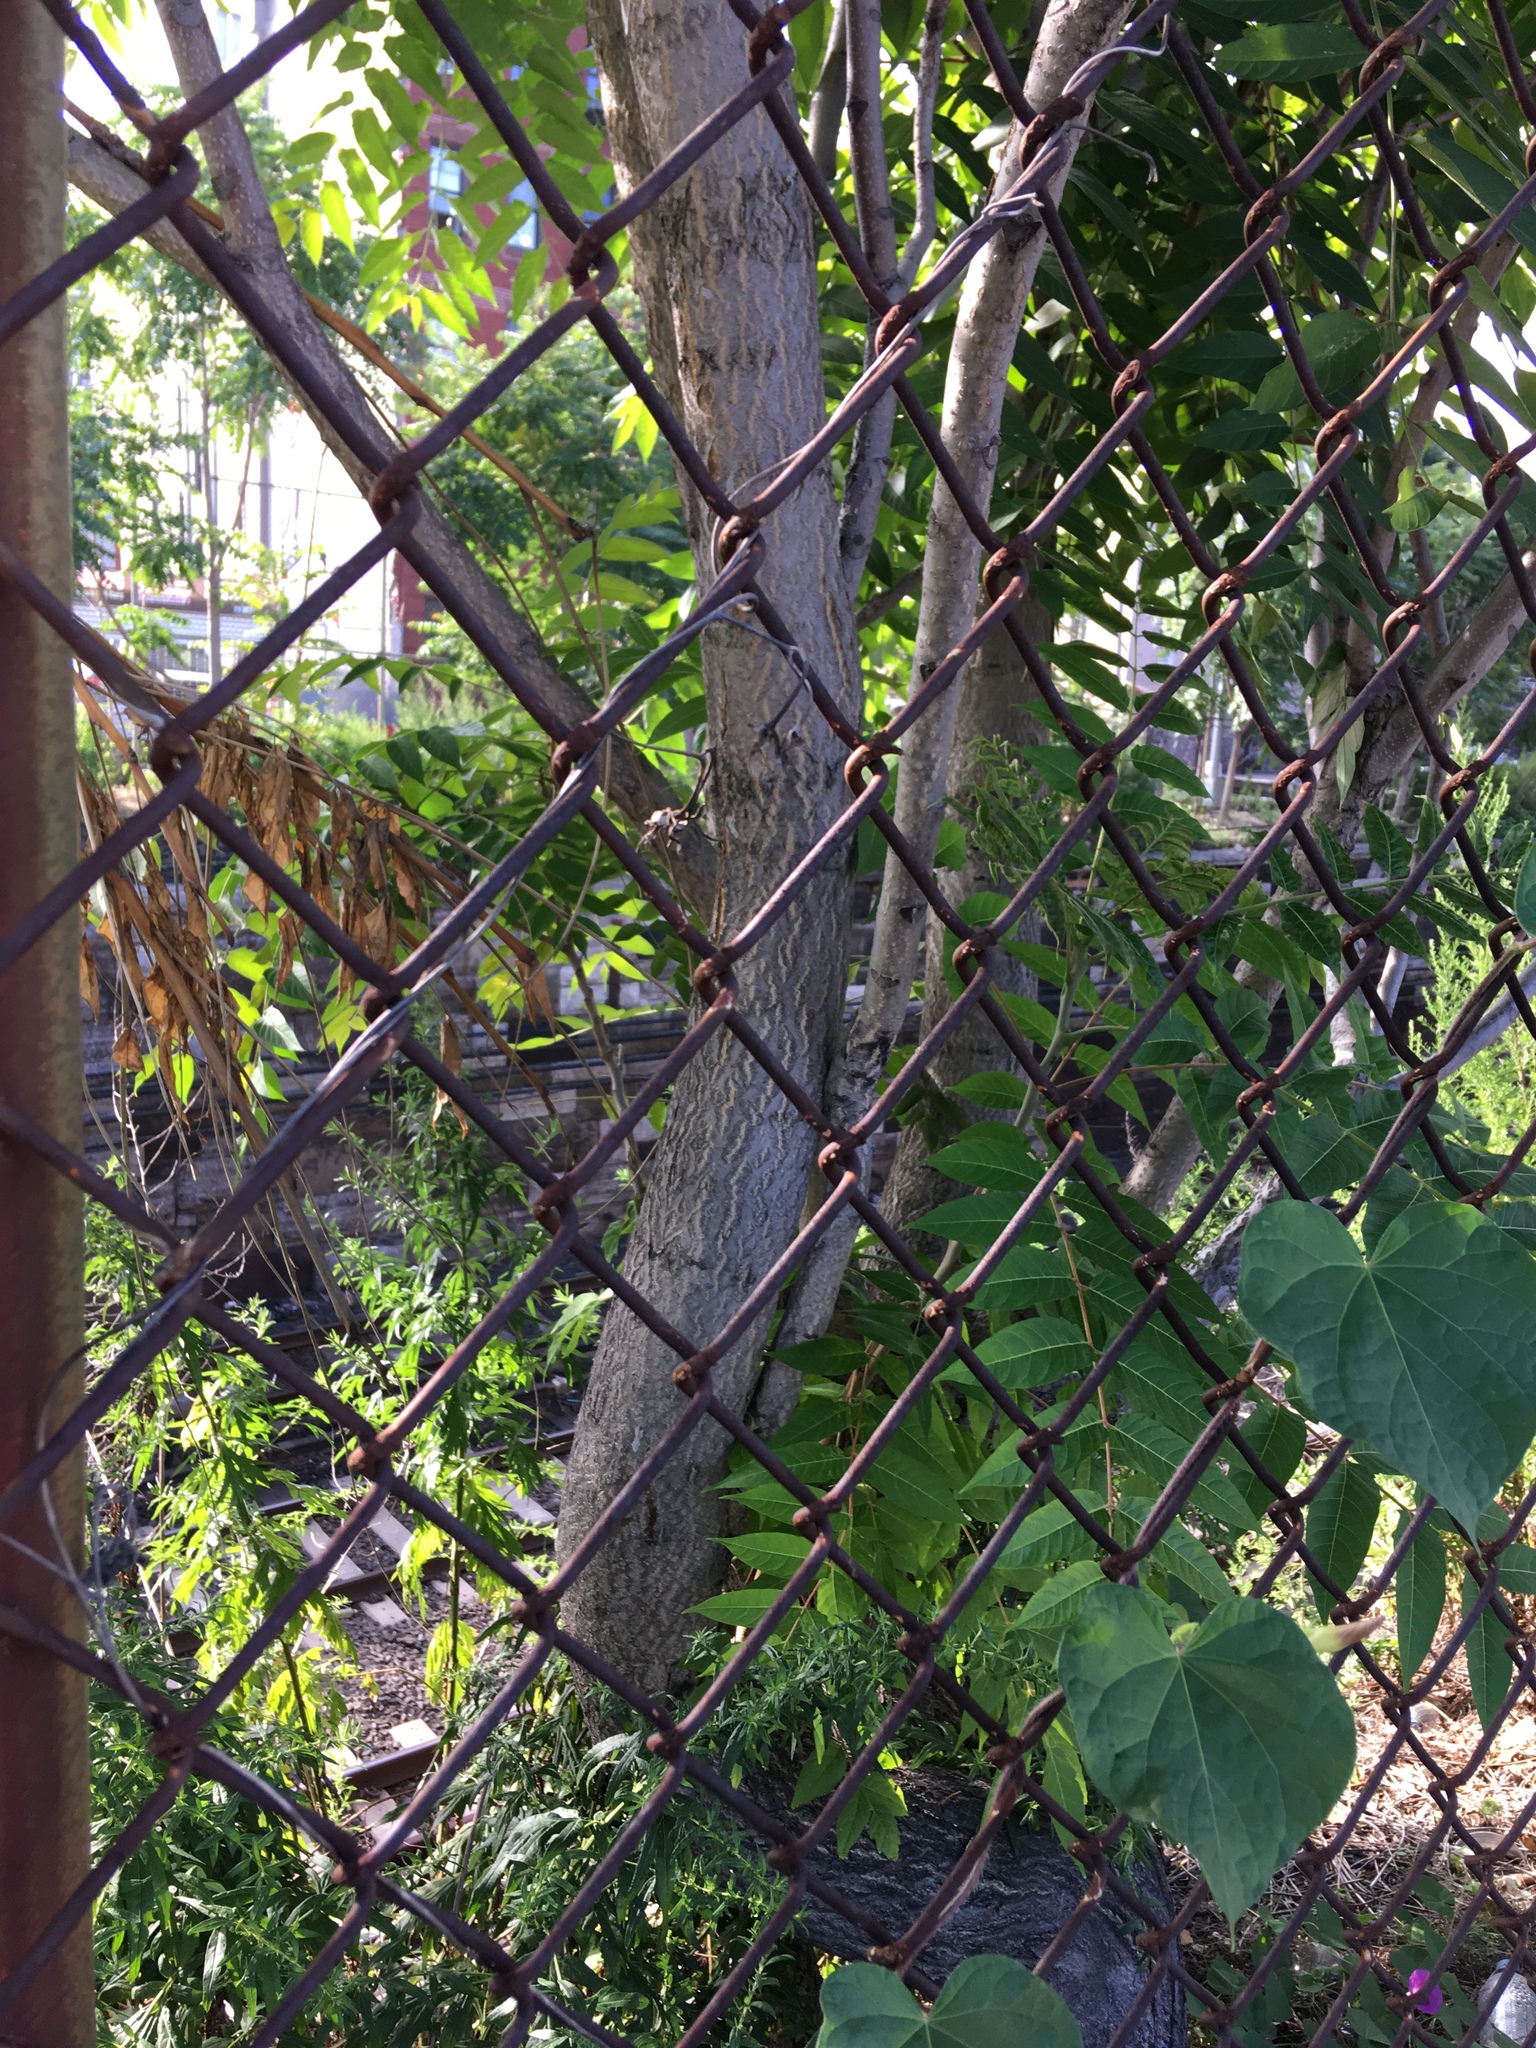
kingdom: Plantae
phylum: Tracheophyta
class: Magnoliopsida
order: Sapindales
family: Simaroubaceae
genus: Ailanthus
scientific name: Ailanthus altissima
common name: Tree-of-heaven
